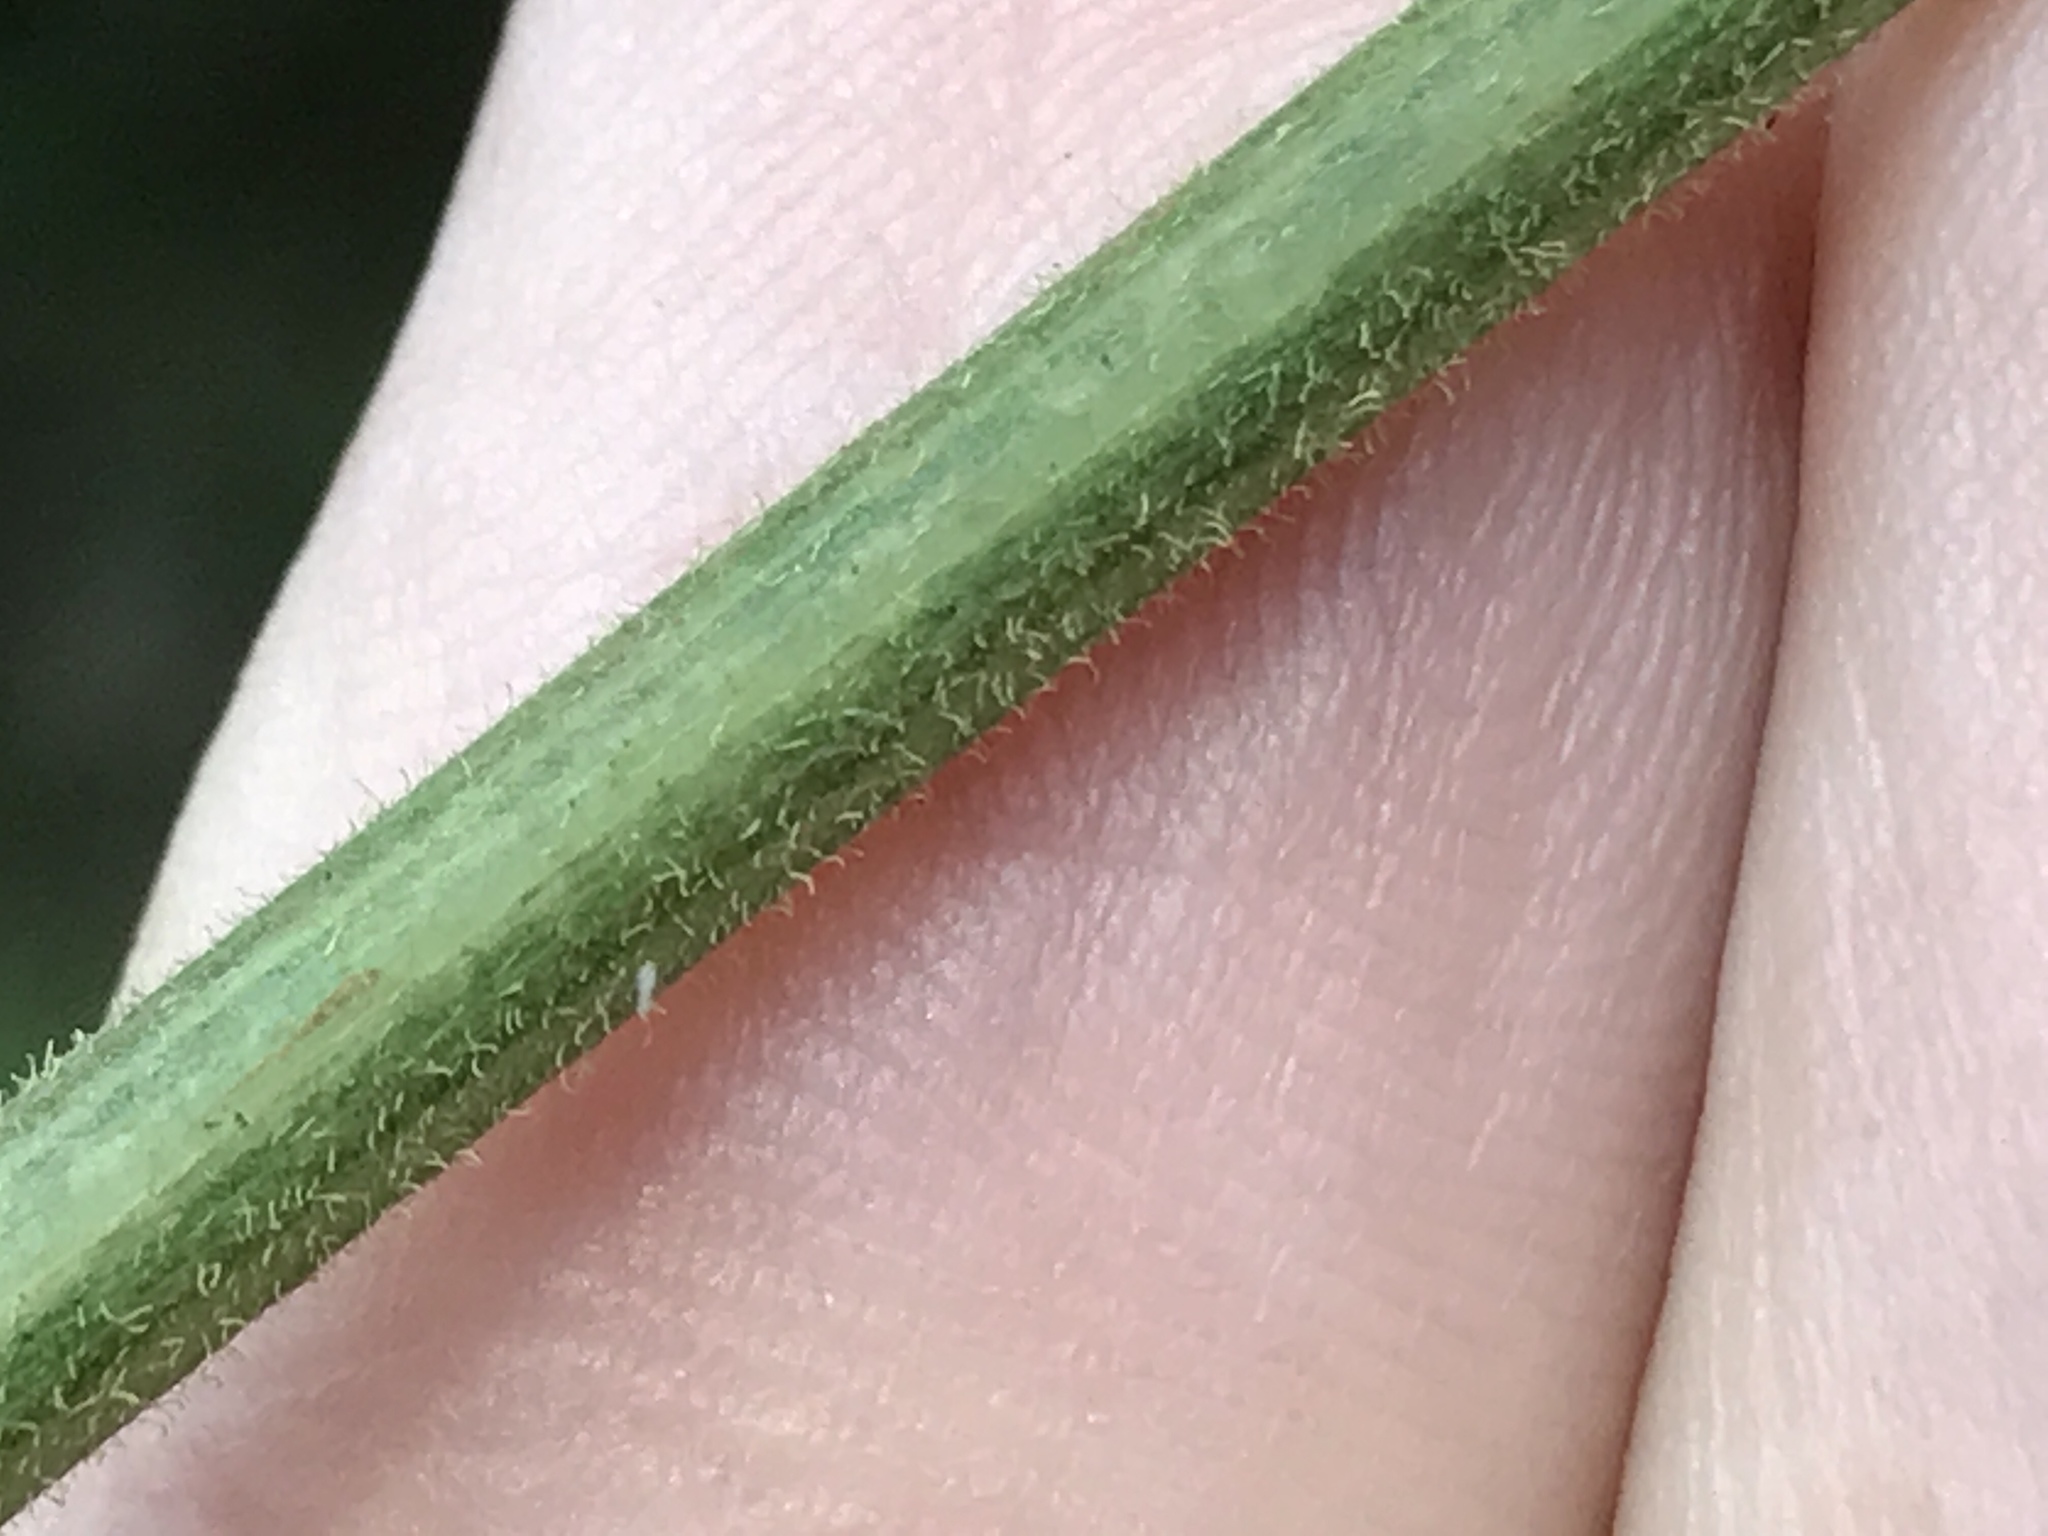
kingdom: Plantae
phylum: Tracheophyta
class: Magnoliopsida
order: Fabales
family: Fabaceae
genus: Desmodium
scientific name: Desmodium viridiflorum
